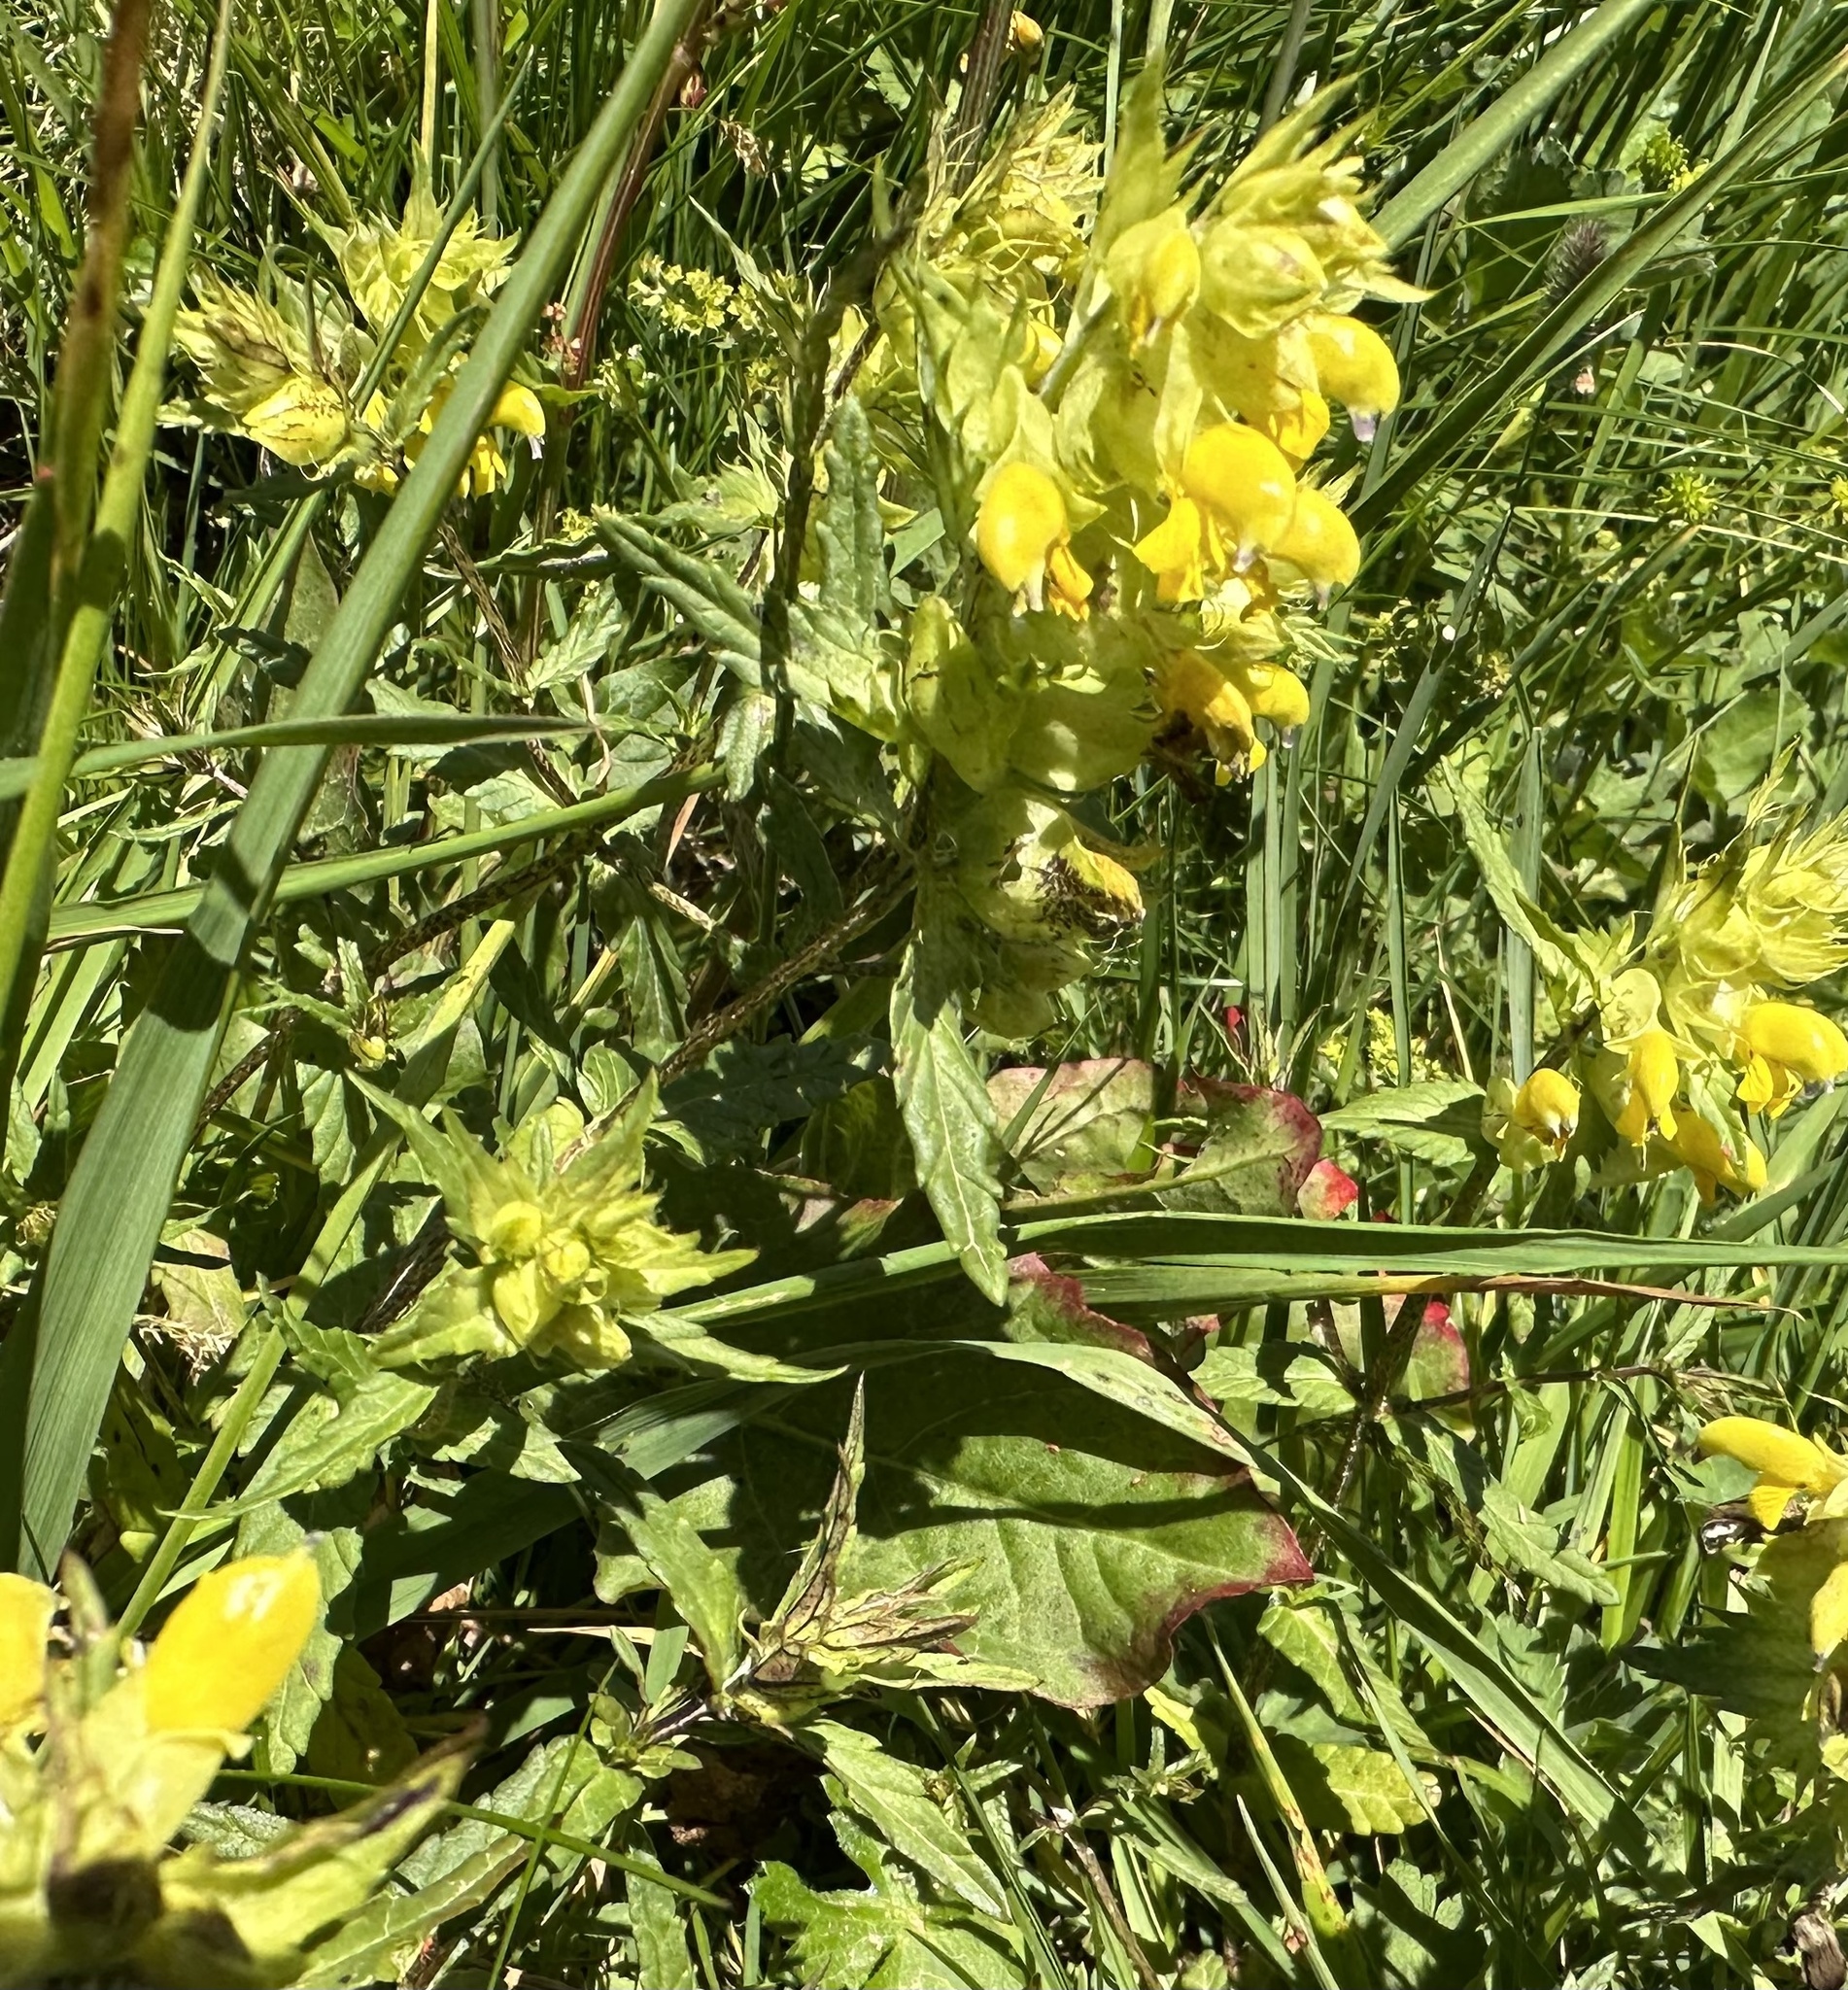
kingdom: Plantae
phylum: Tracheophyta
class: Magnoliopsida
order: Lamiales
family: Orobanchaceae
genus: Rhinanthus
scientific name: Rhinanthus glacialis
